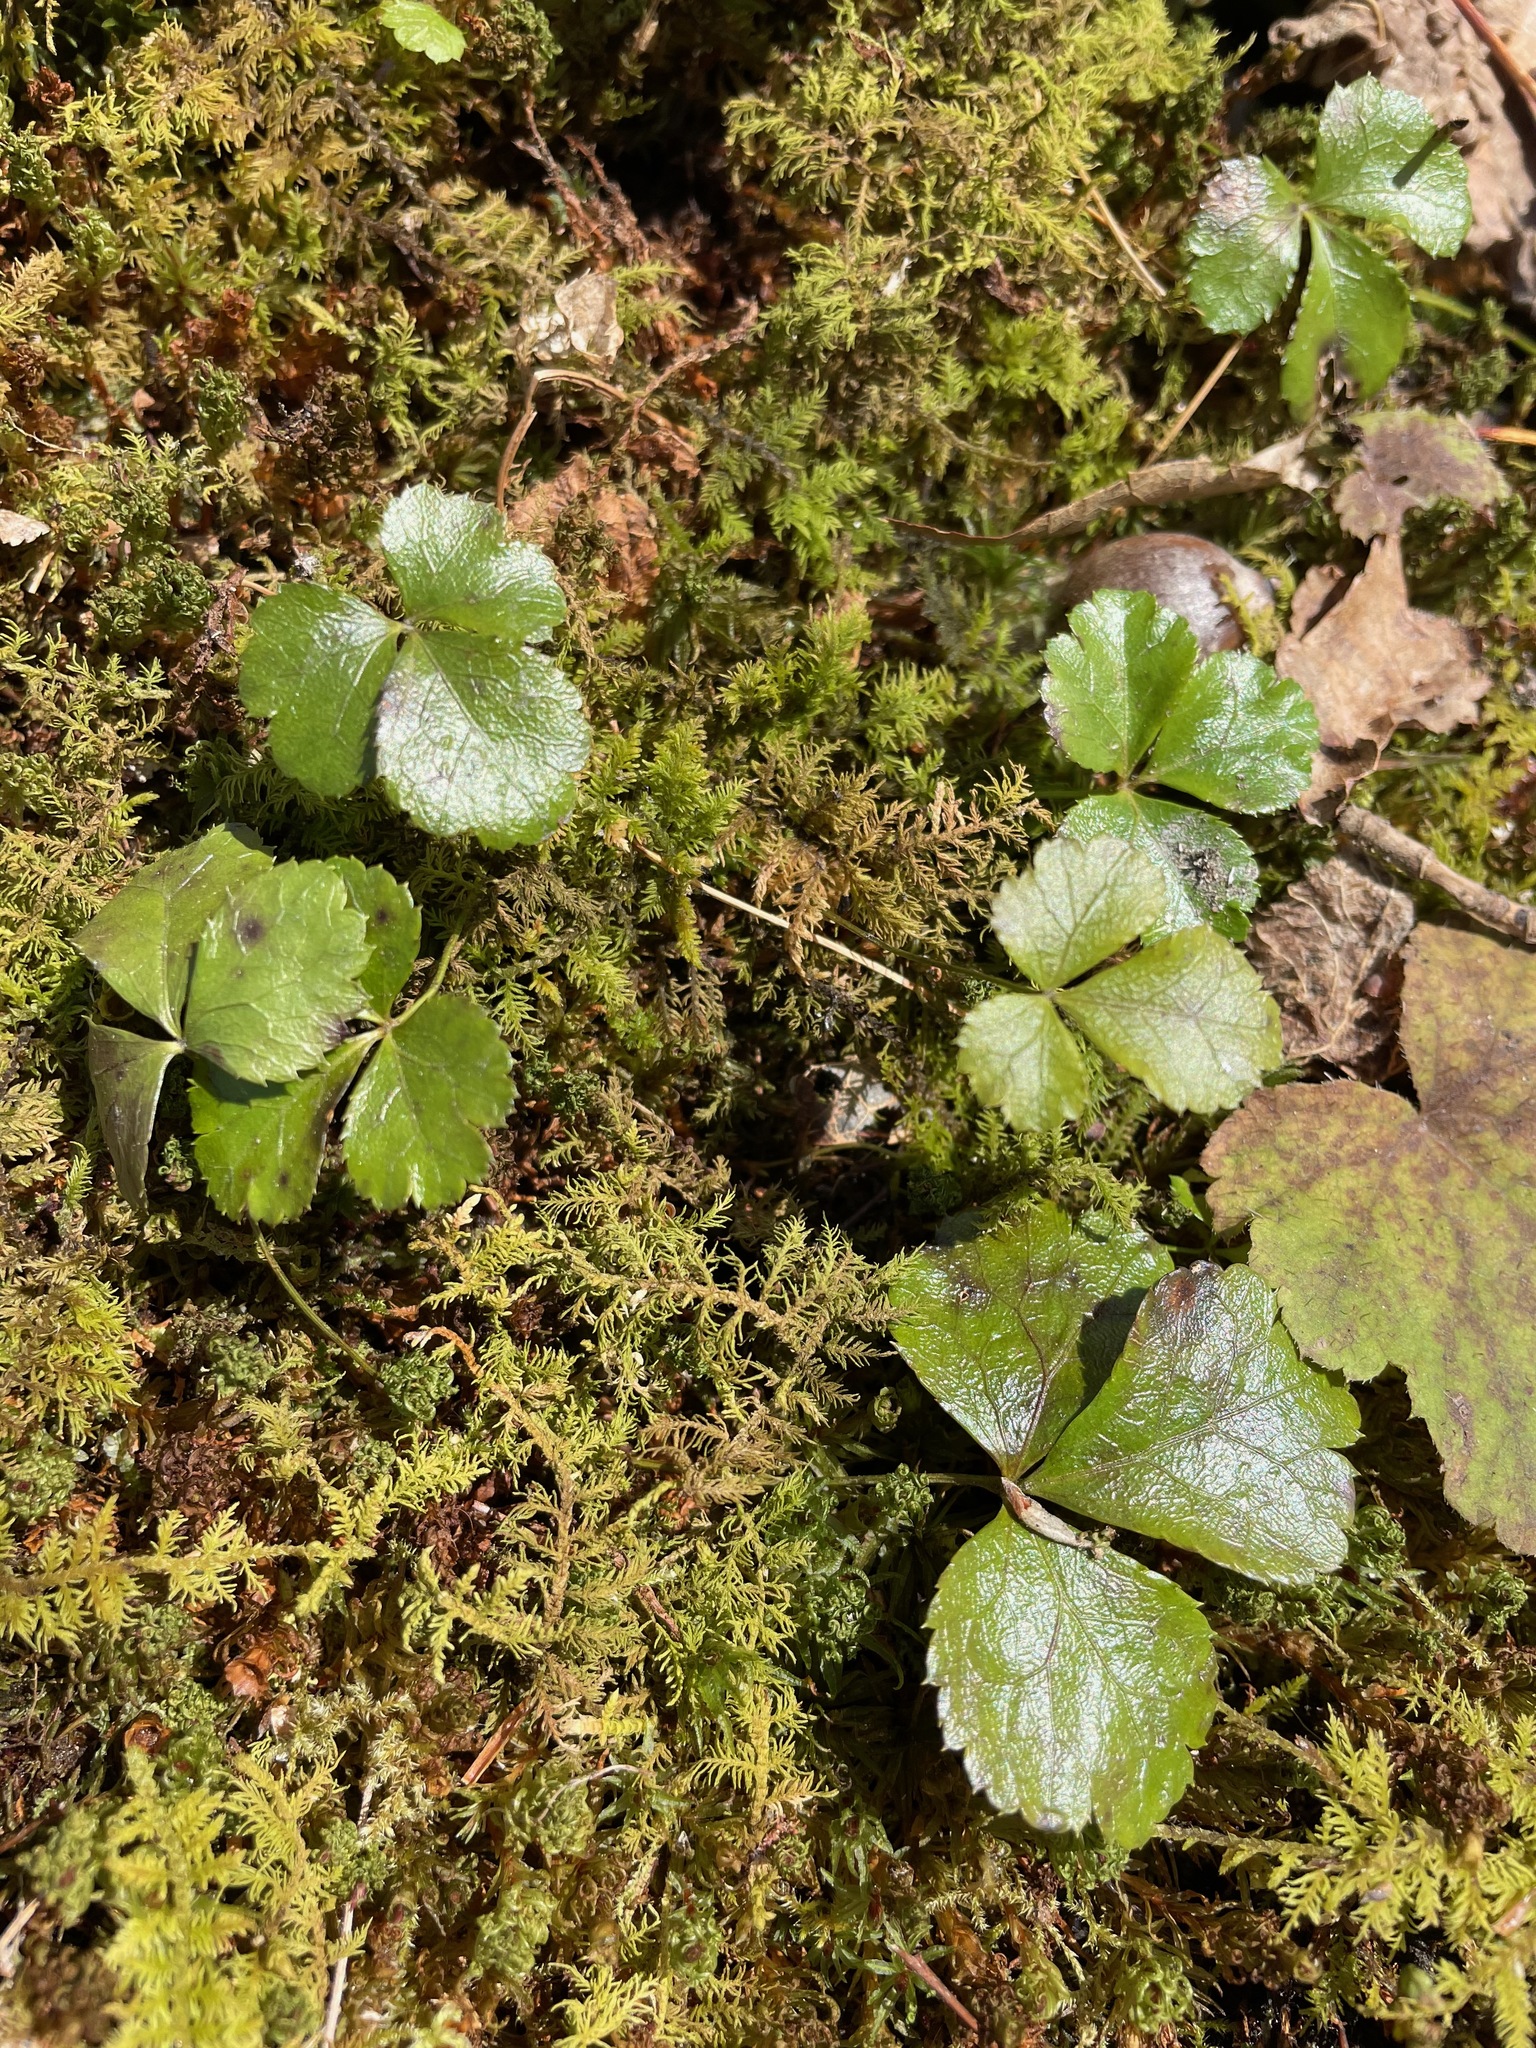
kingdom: Plantae
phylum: Tracheophyta
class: Magnoliopsida
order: Ranunculales
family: Ranunculaceae
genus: Coptis
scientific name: Coptis trifolia
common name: Canker-root
